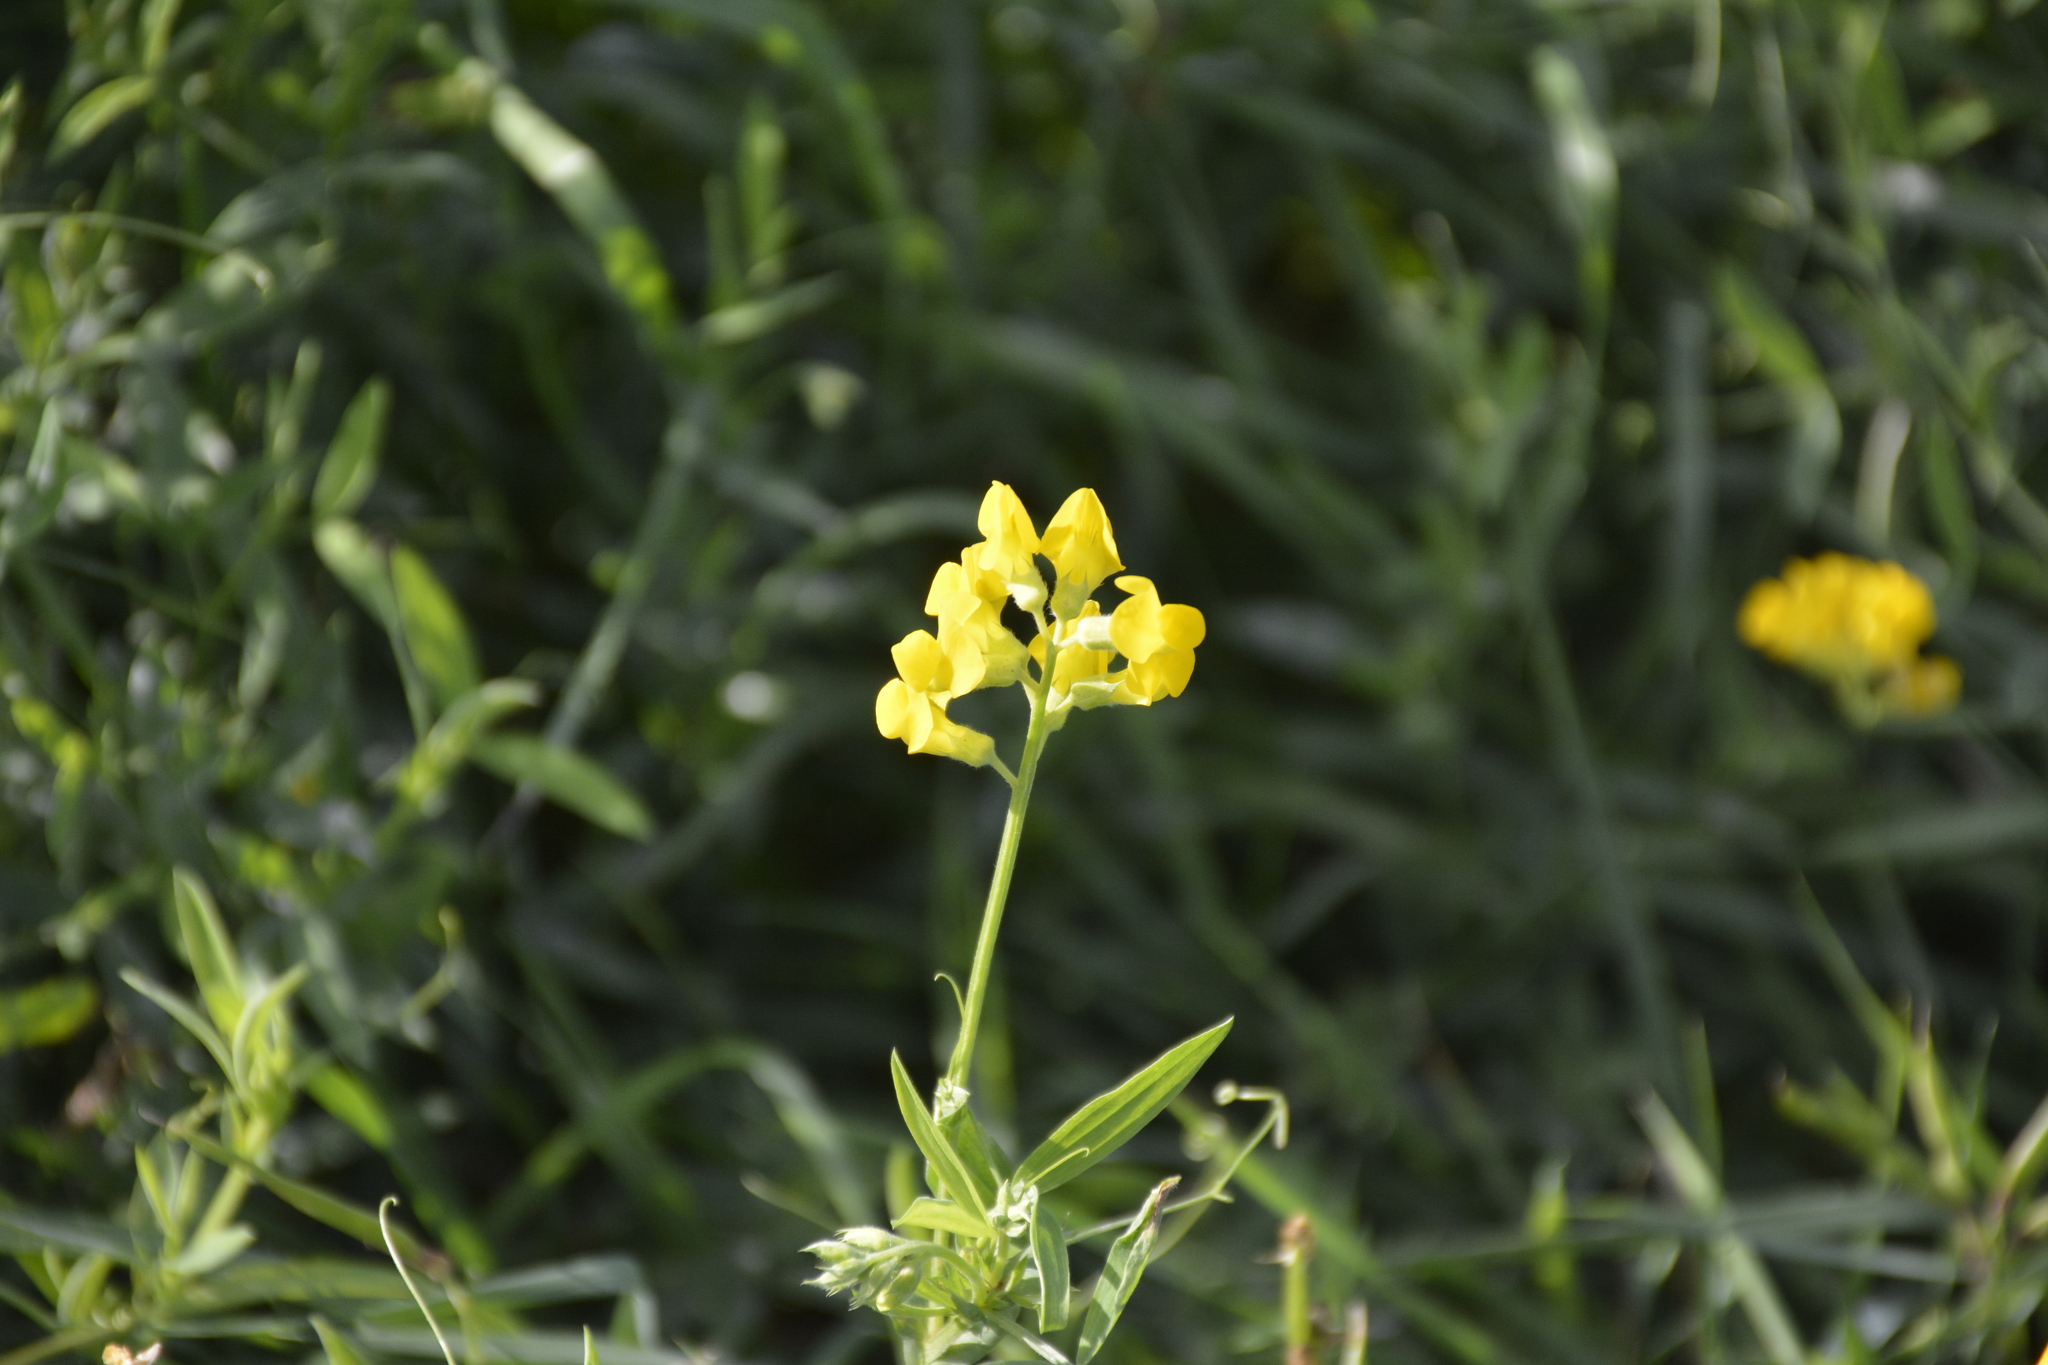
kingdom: Plantae
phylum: Tracheophyta
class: Magnoliopsida
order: Fabales
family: Fabaceae
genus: Lathyrus
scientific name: Lathyrus pratensis
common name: Meadow vetchling
